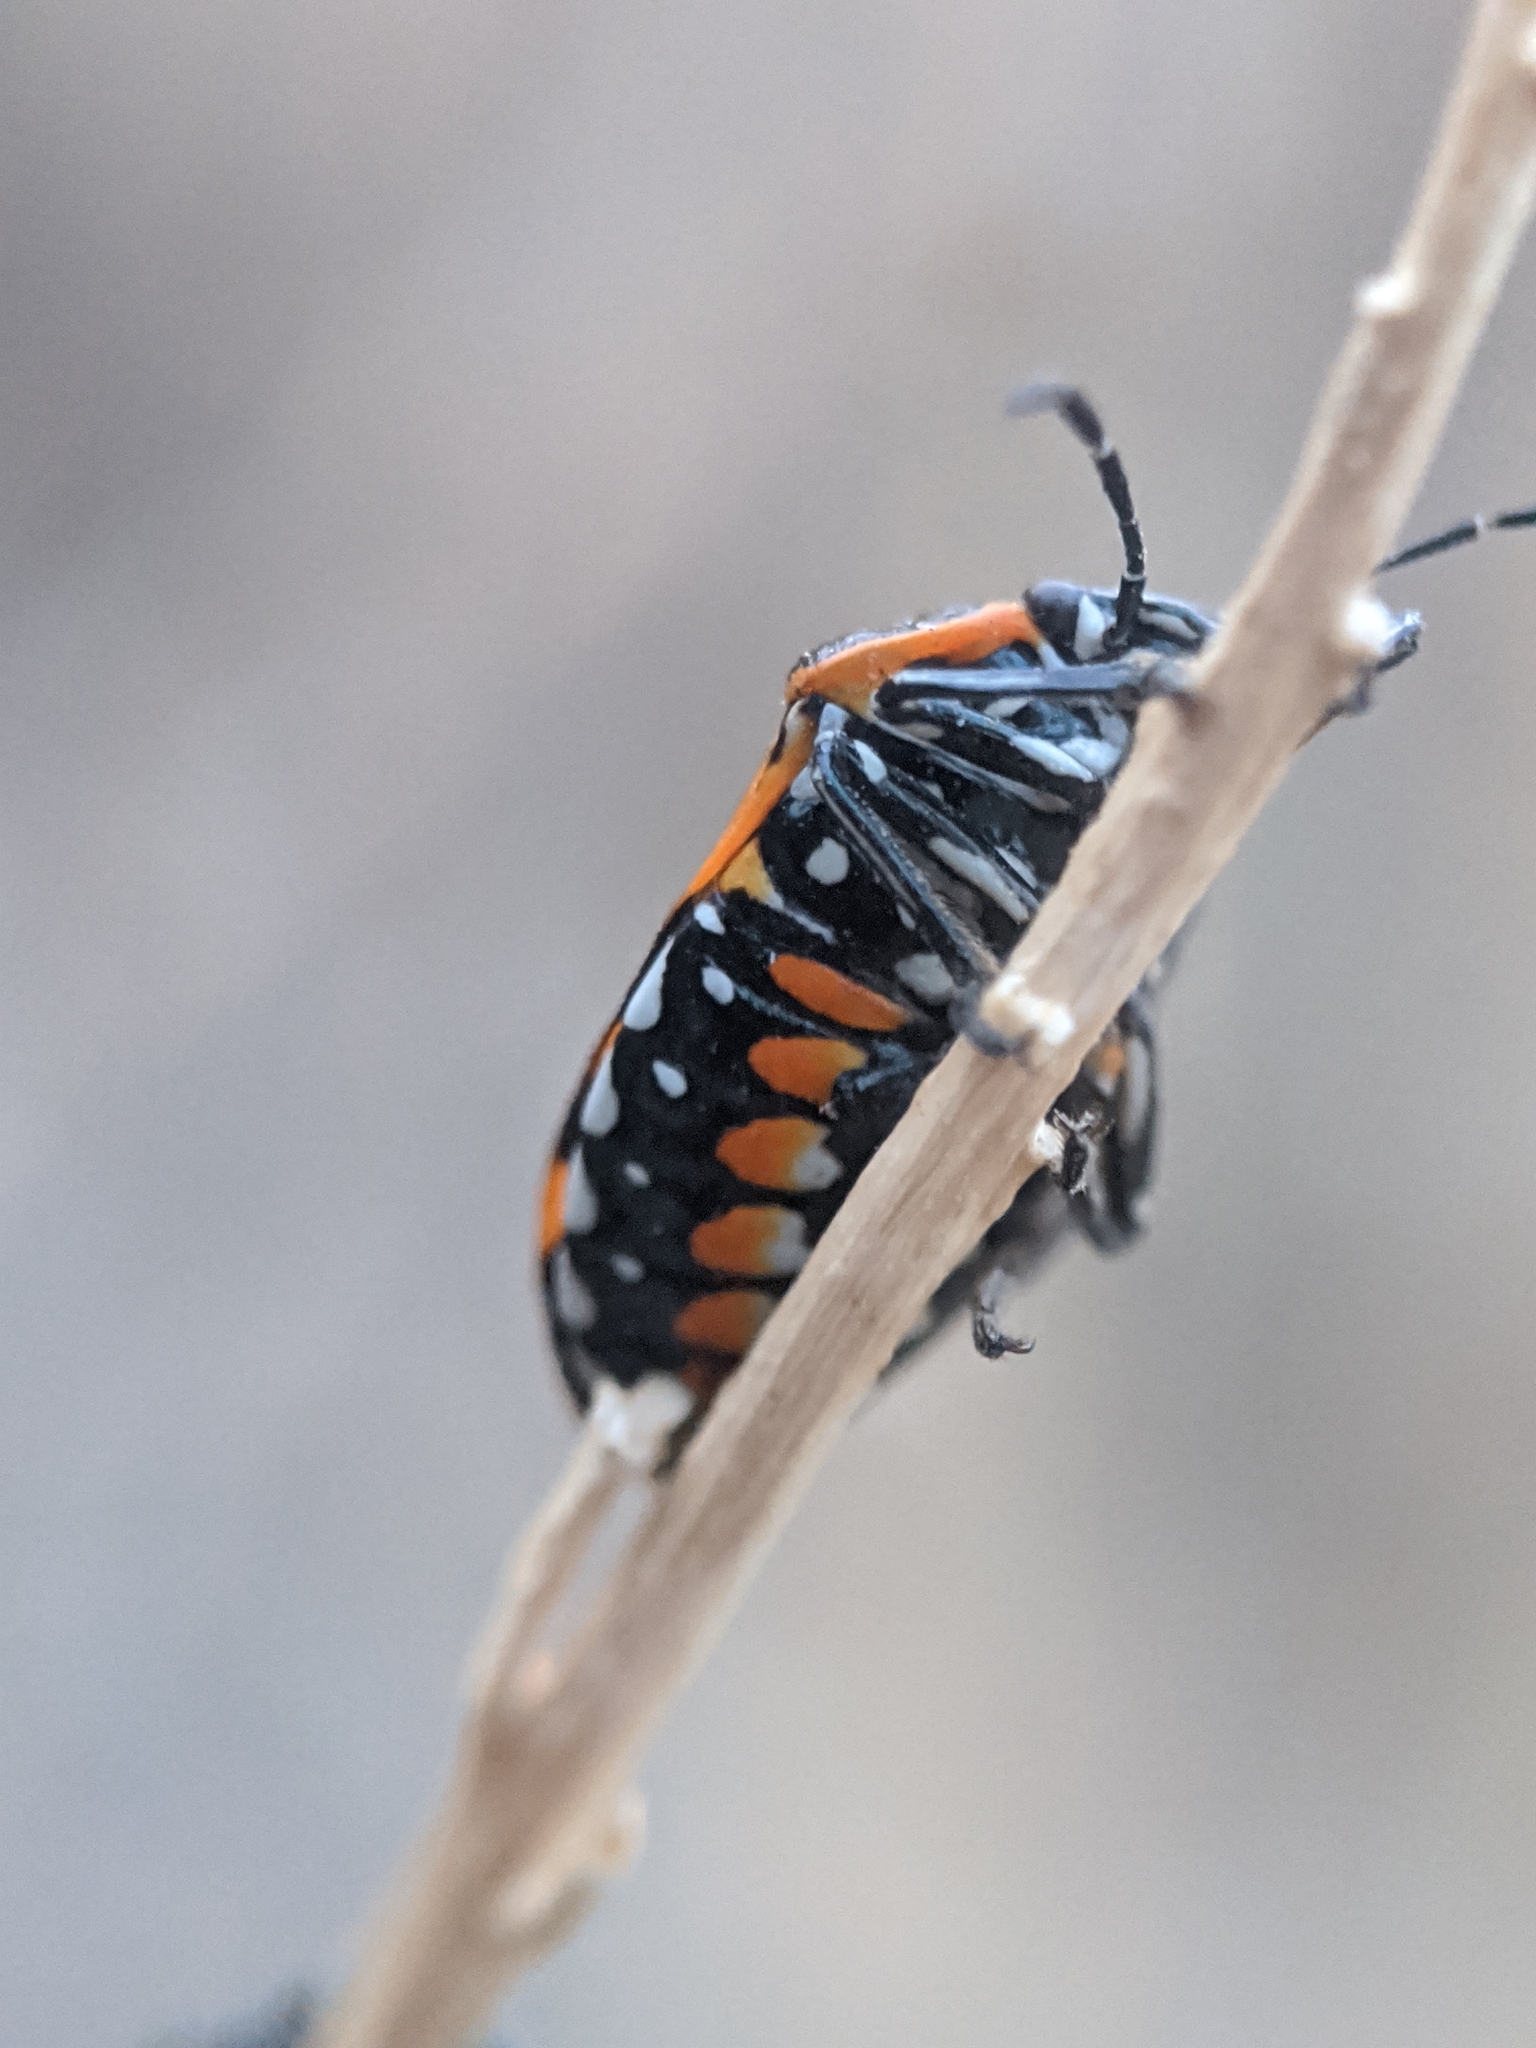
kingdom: Animalia
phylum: Arthropoda
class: Insecta
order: Hemiptera
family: Pentatomidae
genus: Murgantia
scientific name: Murgantia histrionica
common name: Harlequin bug
